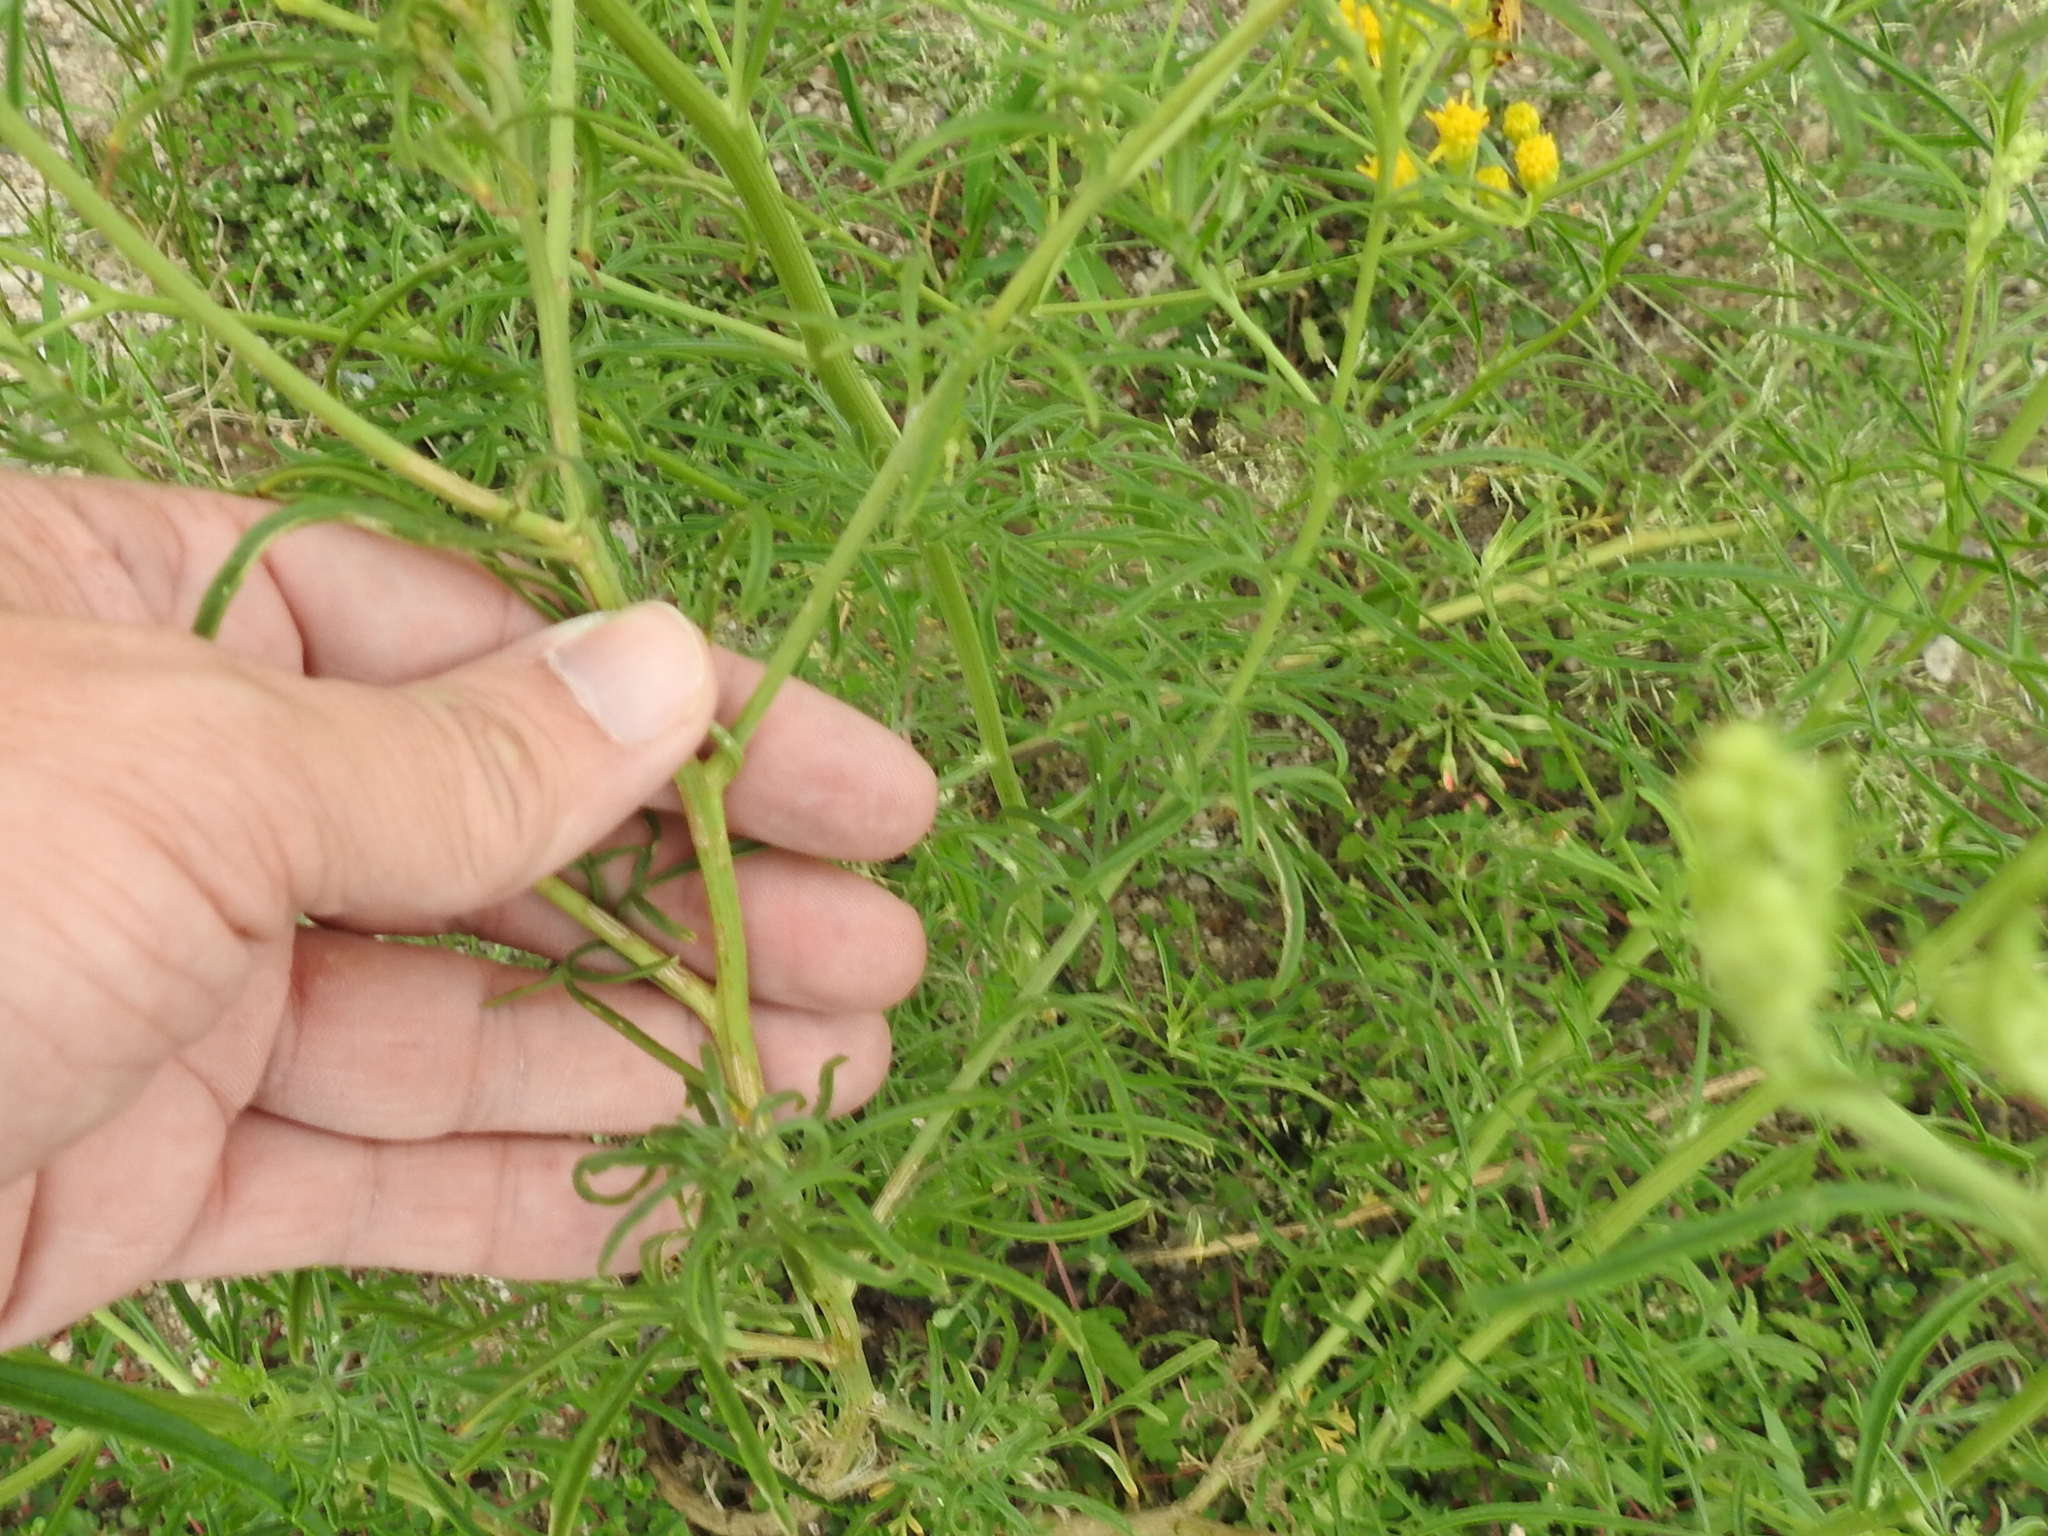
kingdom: Plantae
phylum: Tracheophyta
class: Magnoliopsida
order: Asterales
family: Asteraceae
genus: Hymenothrix
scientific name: Hymenothrix wislizeni
